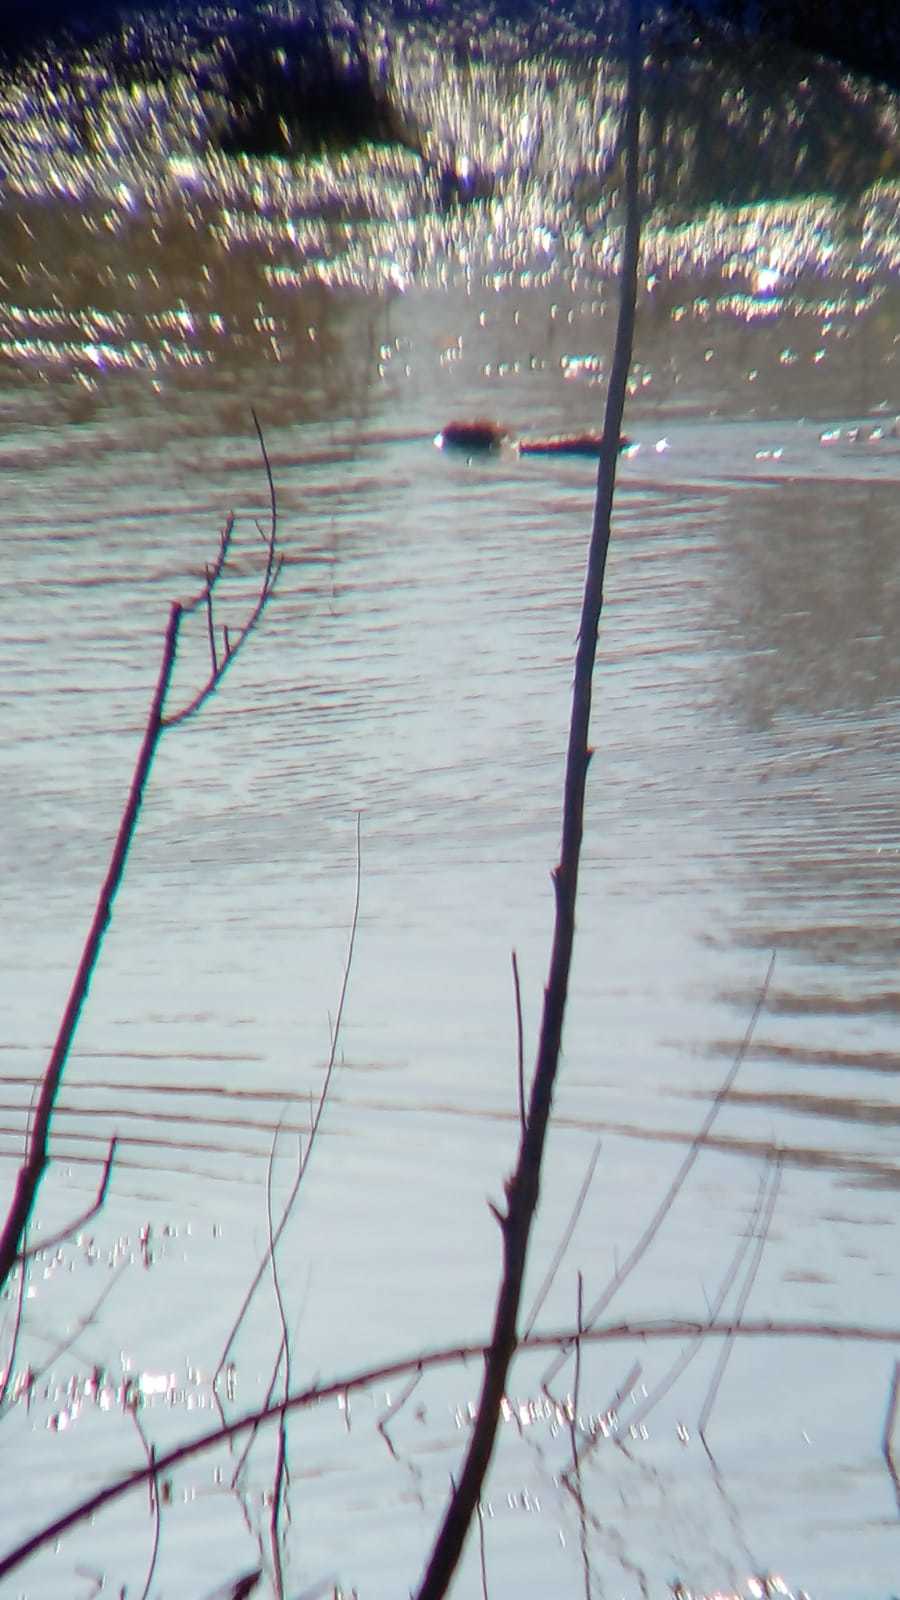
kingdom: Animalia
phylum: Chordata
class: Mammalia
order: Rodentia
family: Myocastoridae
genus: Myocastor
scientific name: Myocastor coypus
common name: Coypu
